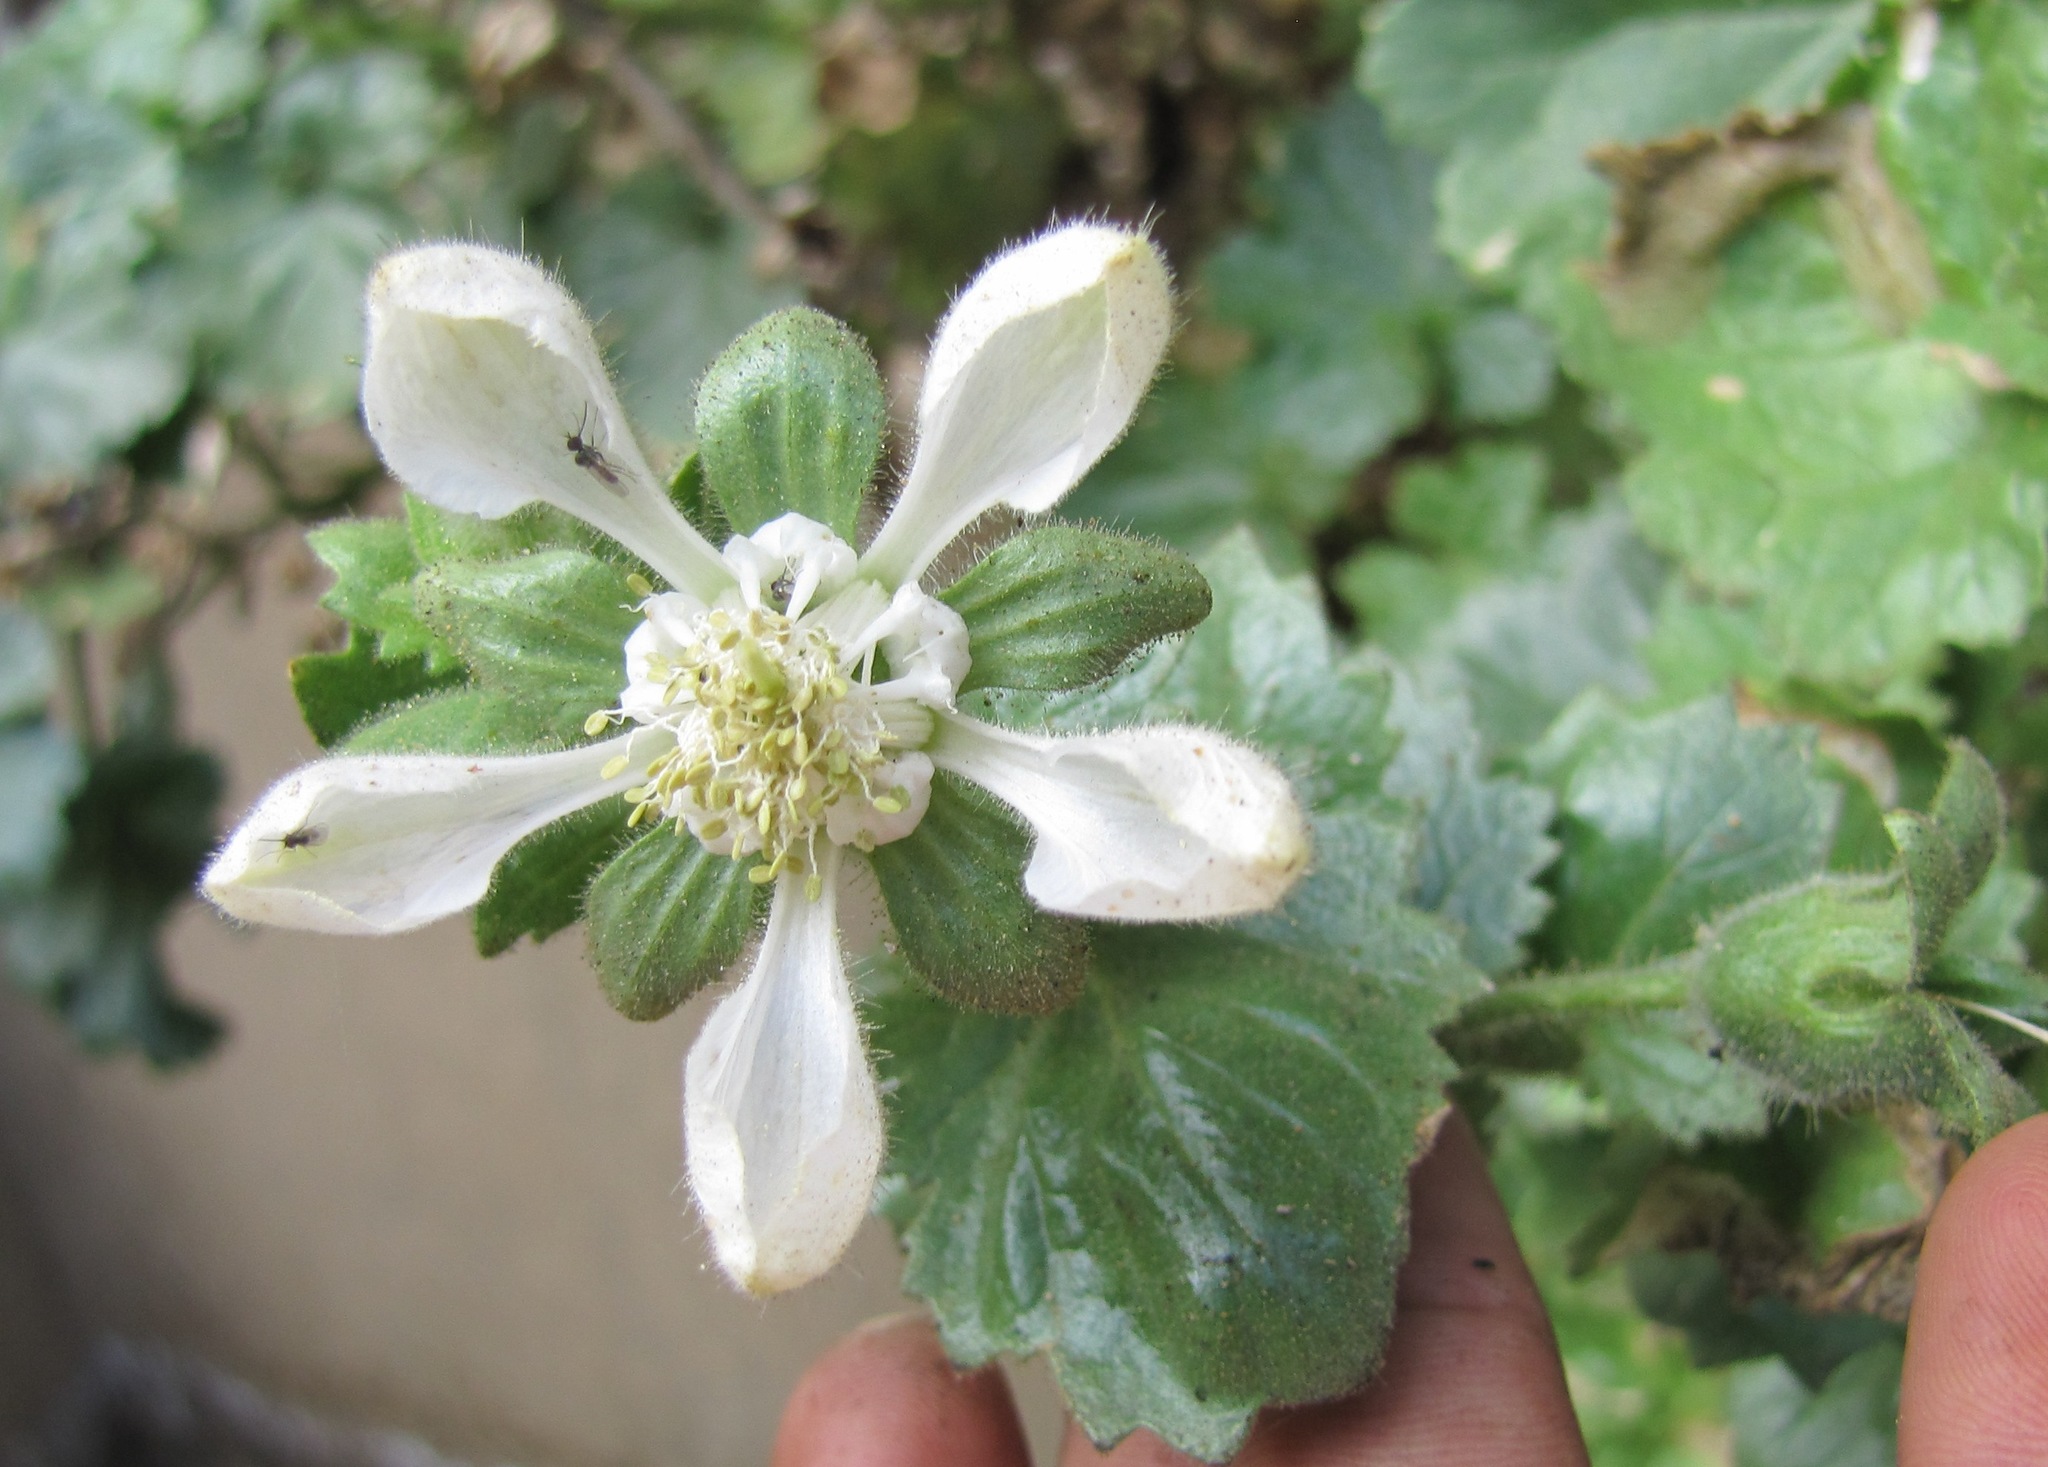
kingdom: Plantae
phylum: Tracheophyta
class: Magnoliopsida
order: Cornales
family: Loasaceae
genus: Presliophytum
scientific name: Presliophytum heucherifolia
